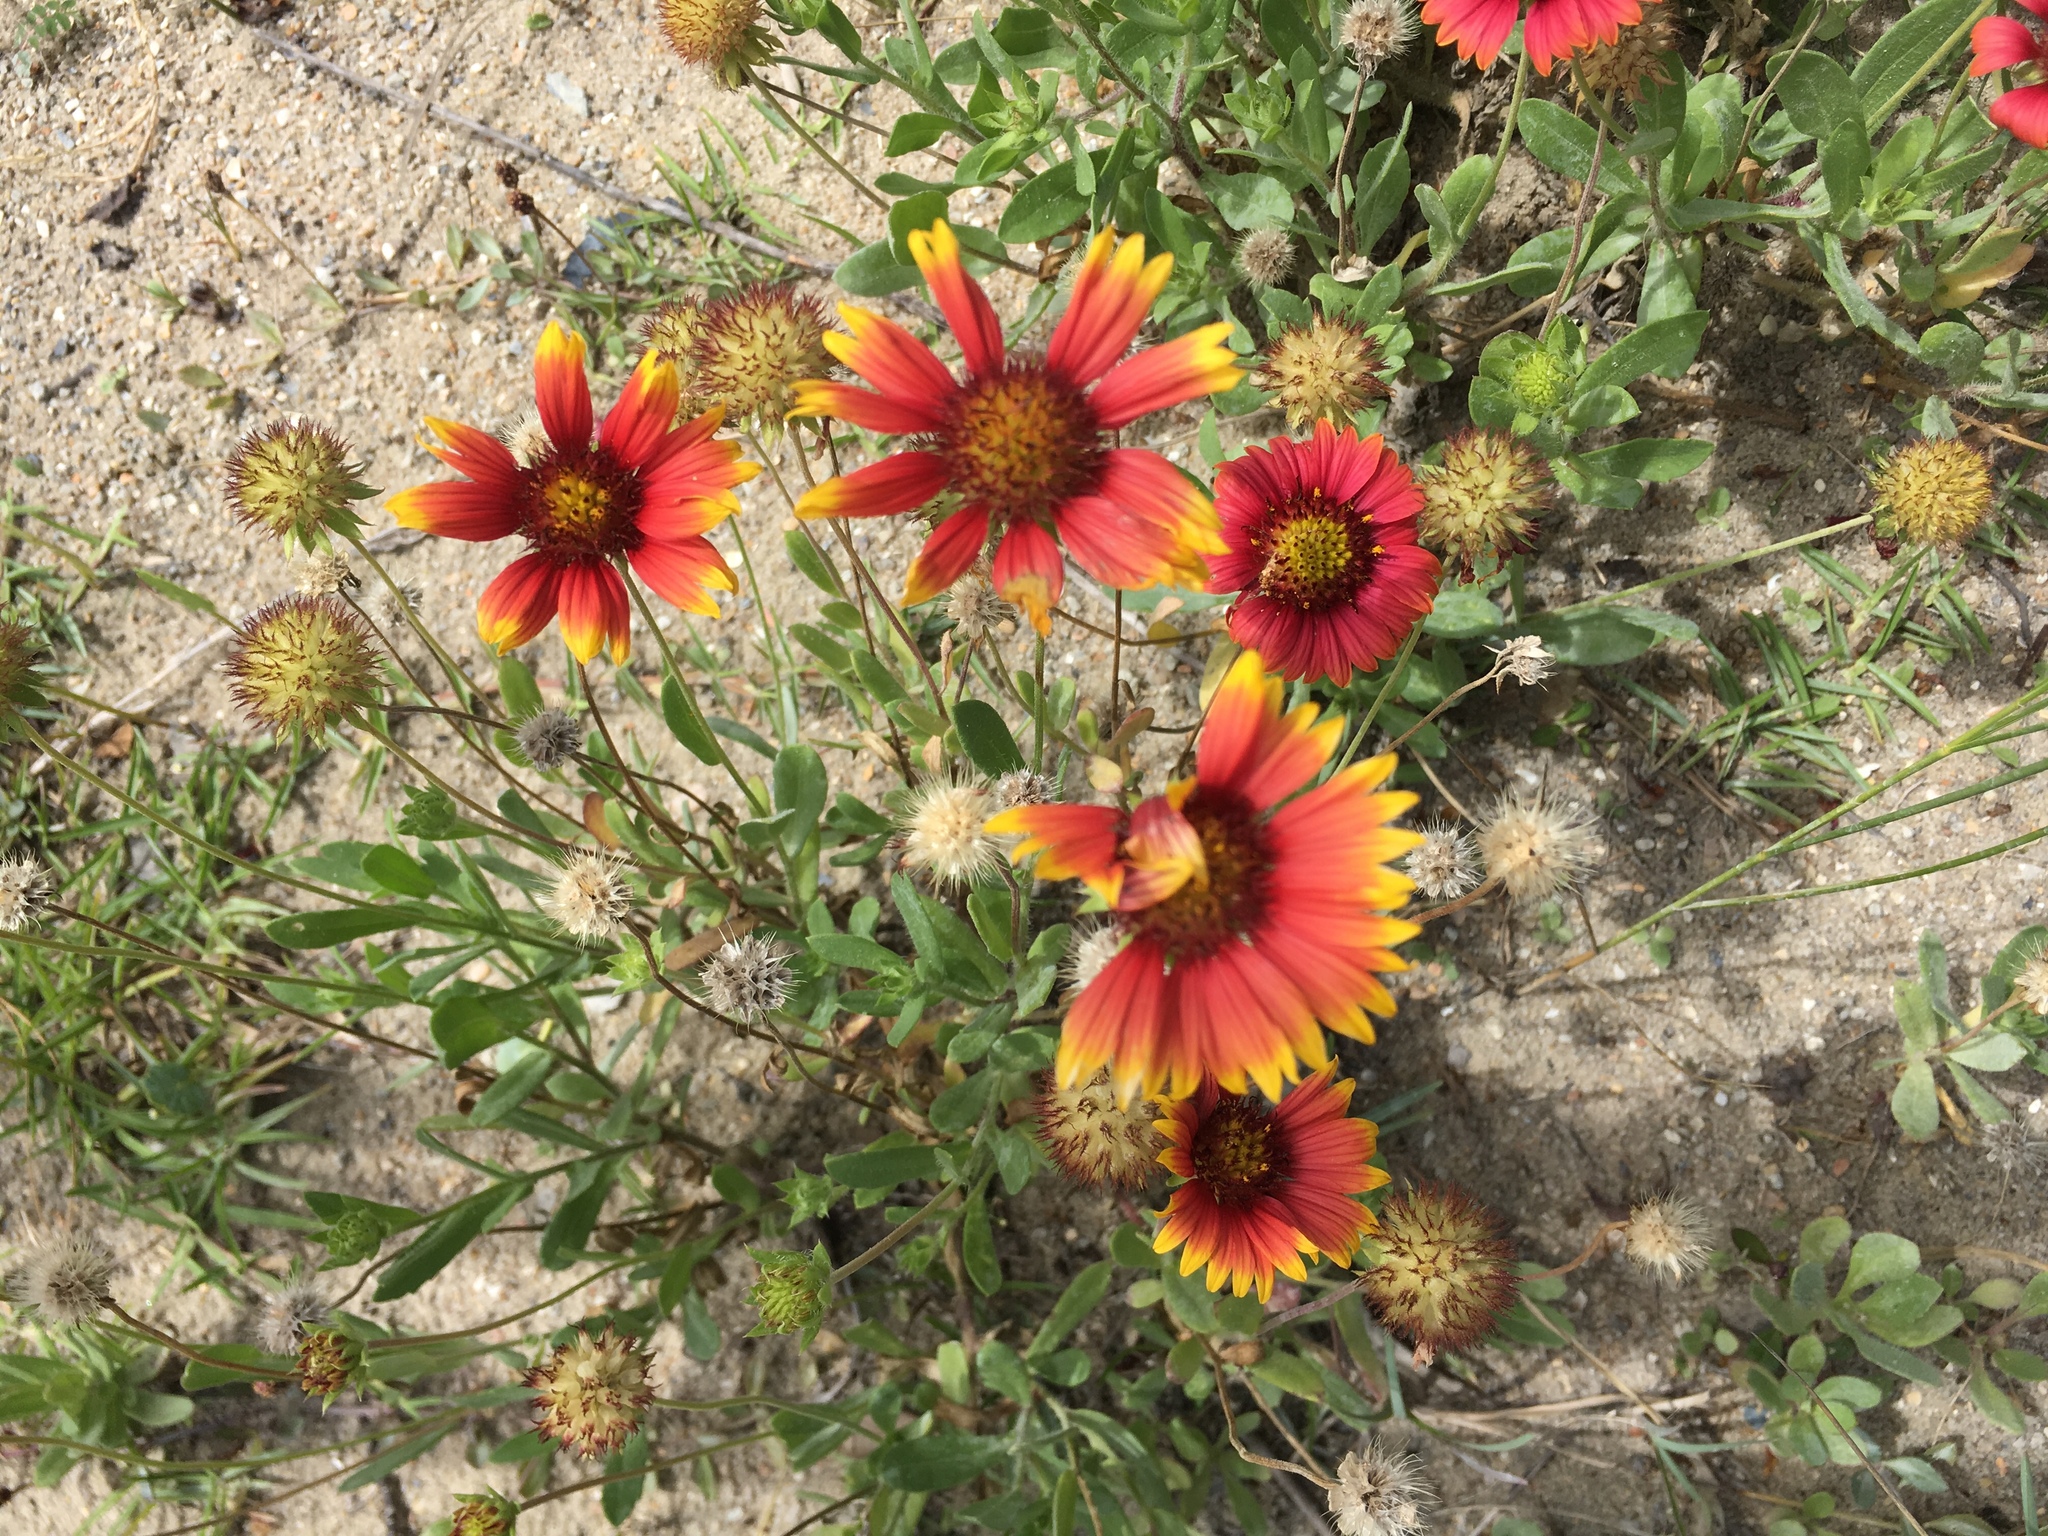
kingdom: Plantae
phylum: Tracheophyta
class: Magnoliopsida
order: Asterales
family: Asteraceae
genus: Gaillardia
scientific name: Gaillardia pulchella
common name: Firewheel
